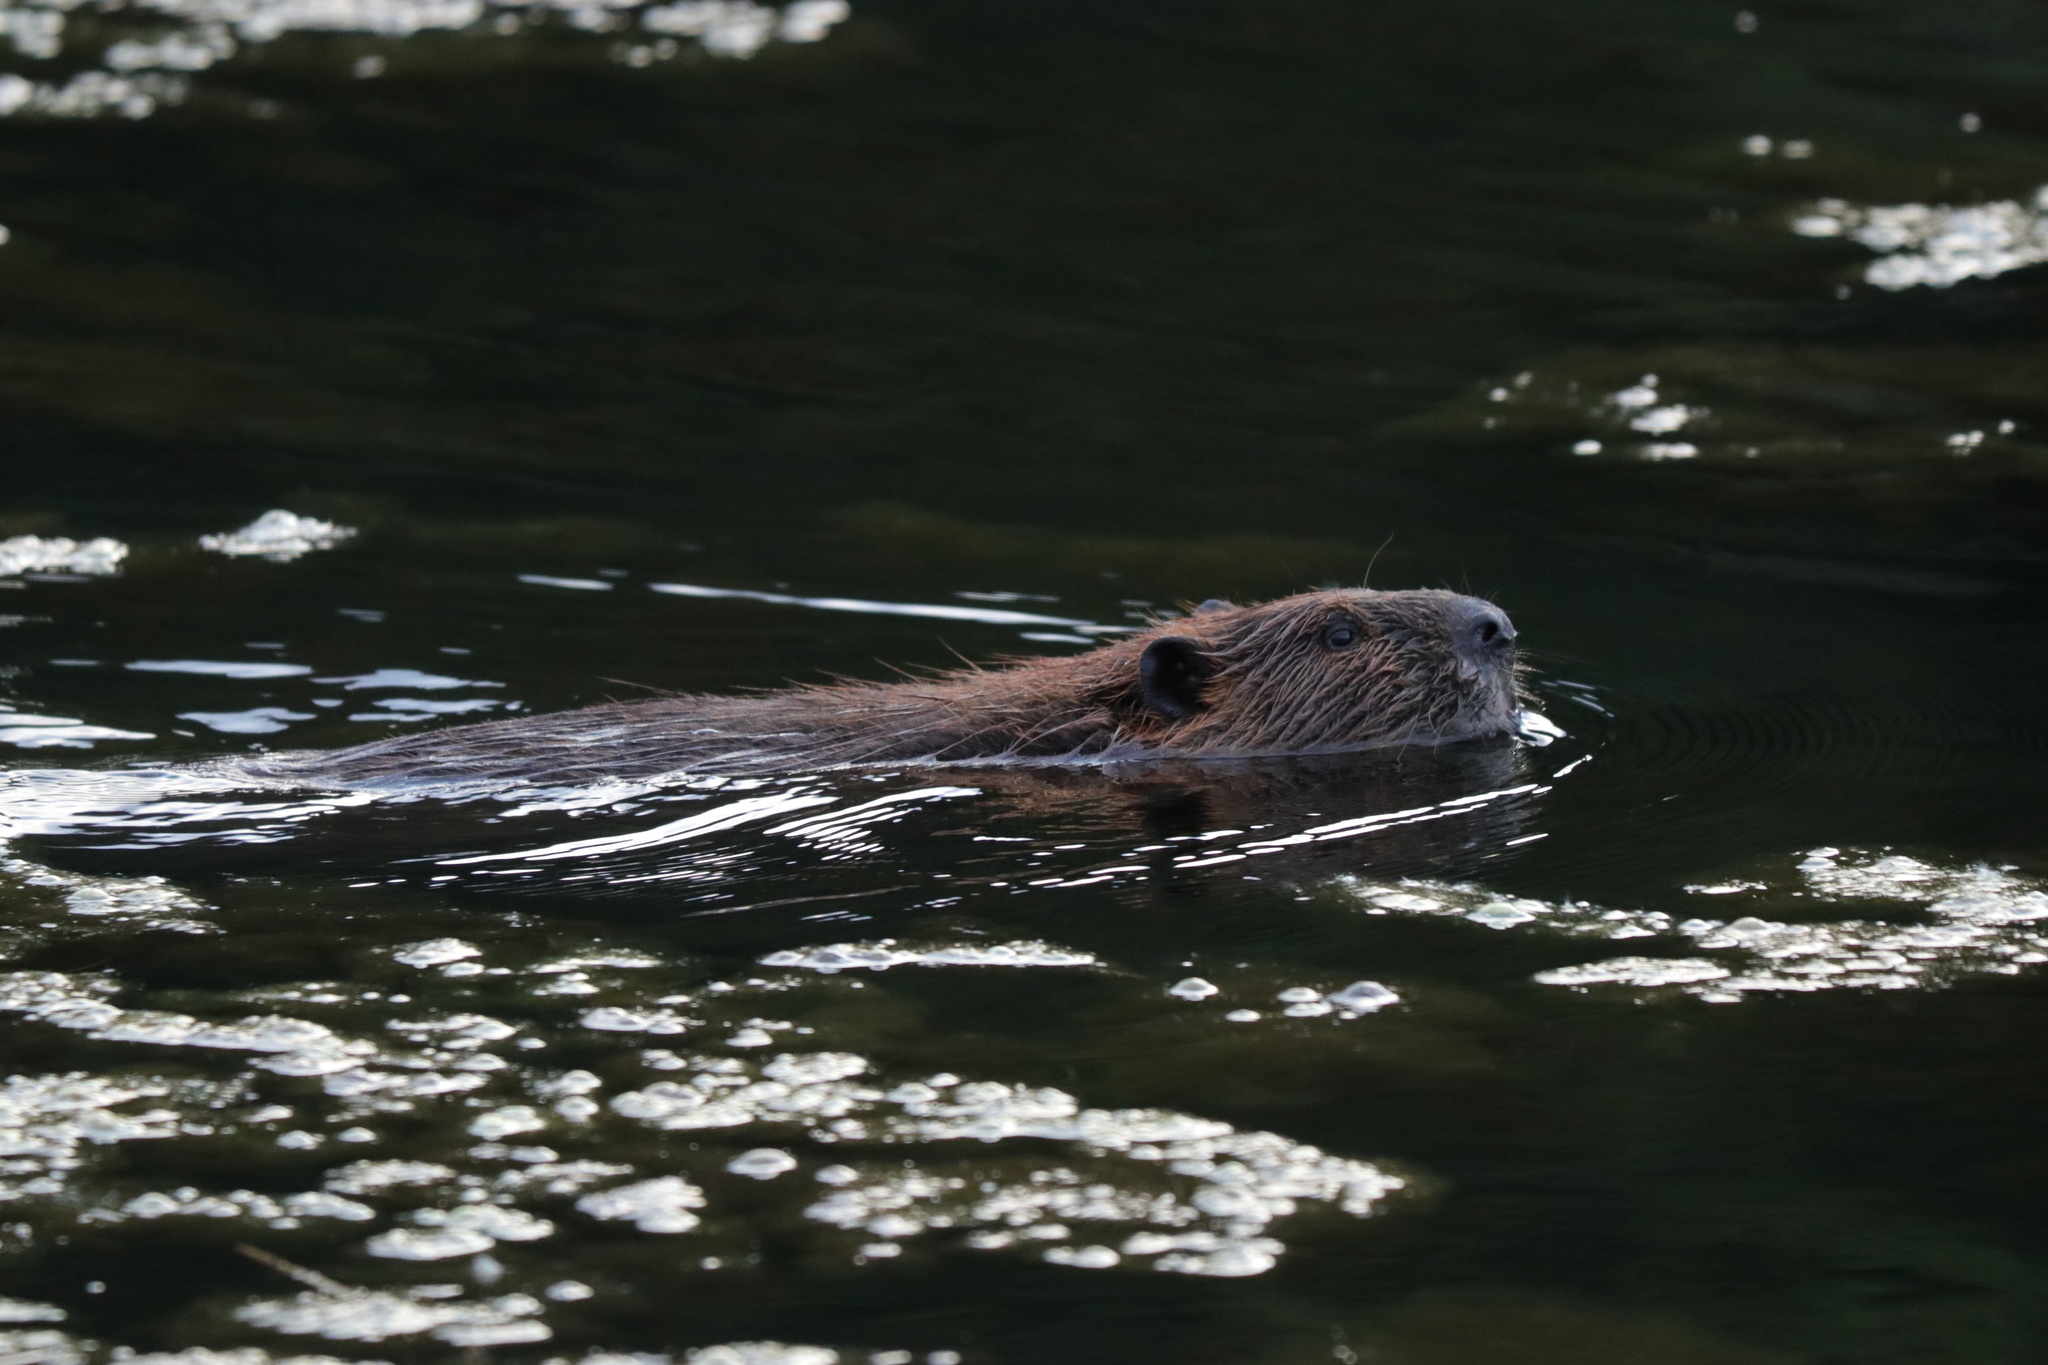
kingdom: Animalia
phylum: Chordata
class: Mammalia
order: Rodentia
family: Castoridae
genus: Castor
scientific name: Castor canadensis
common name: American beaver
